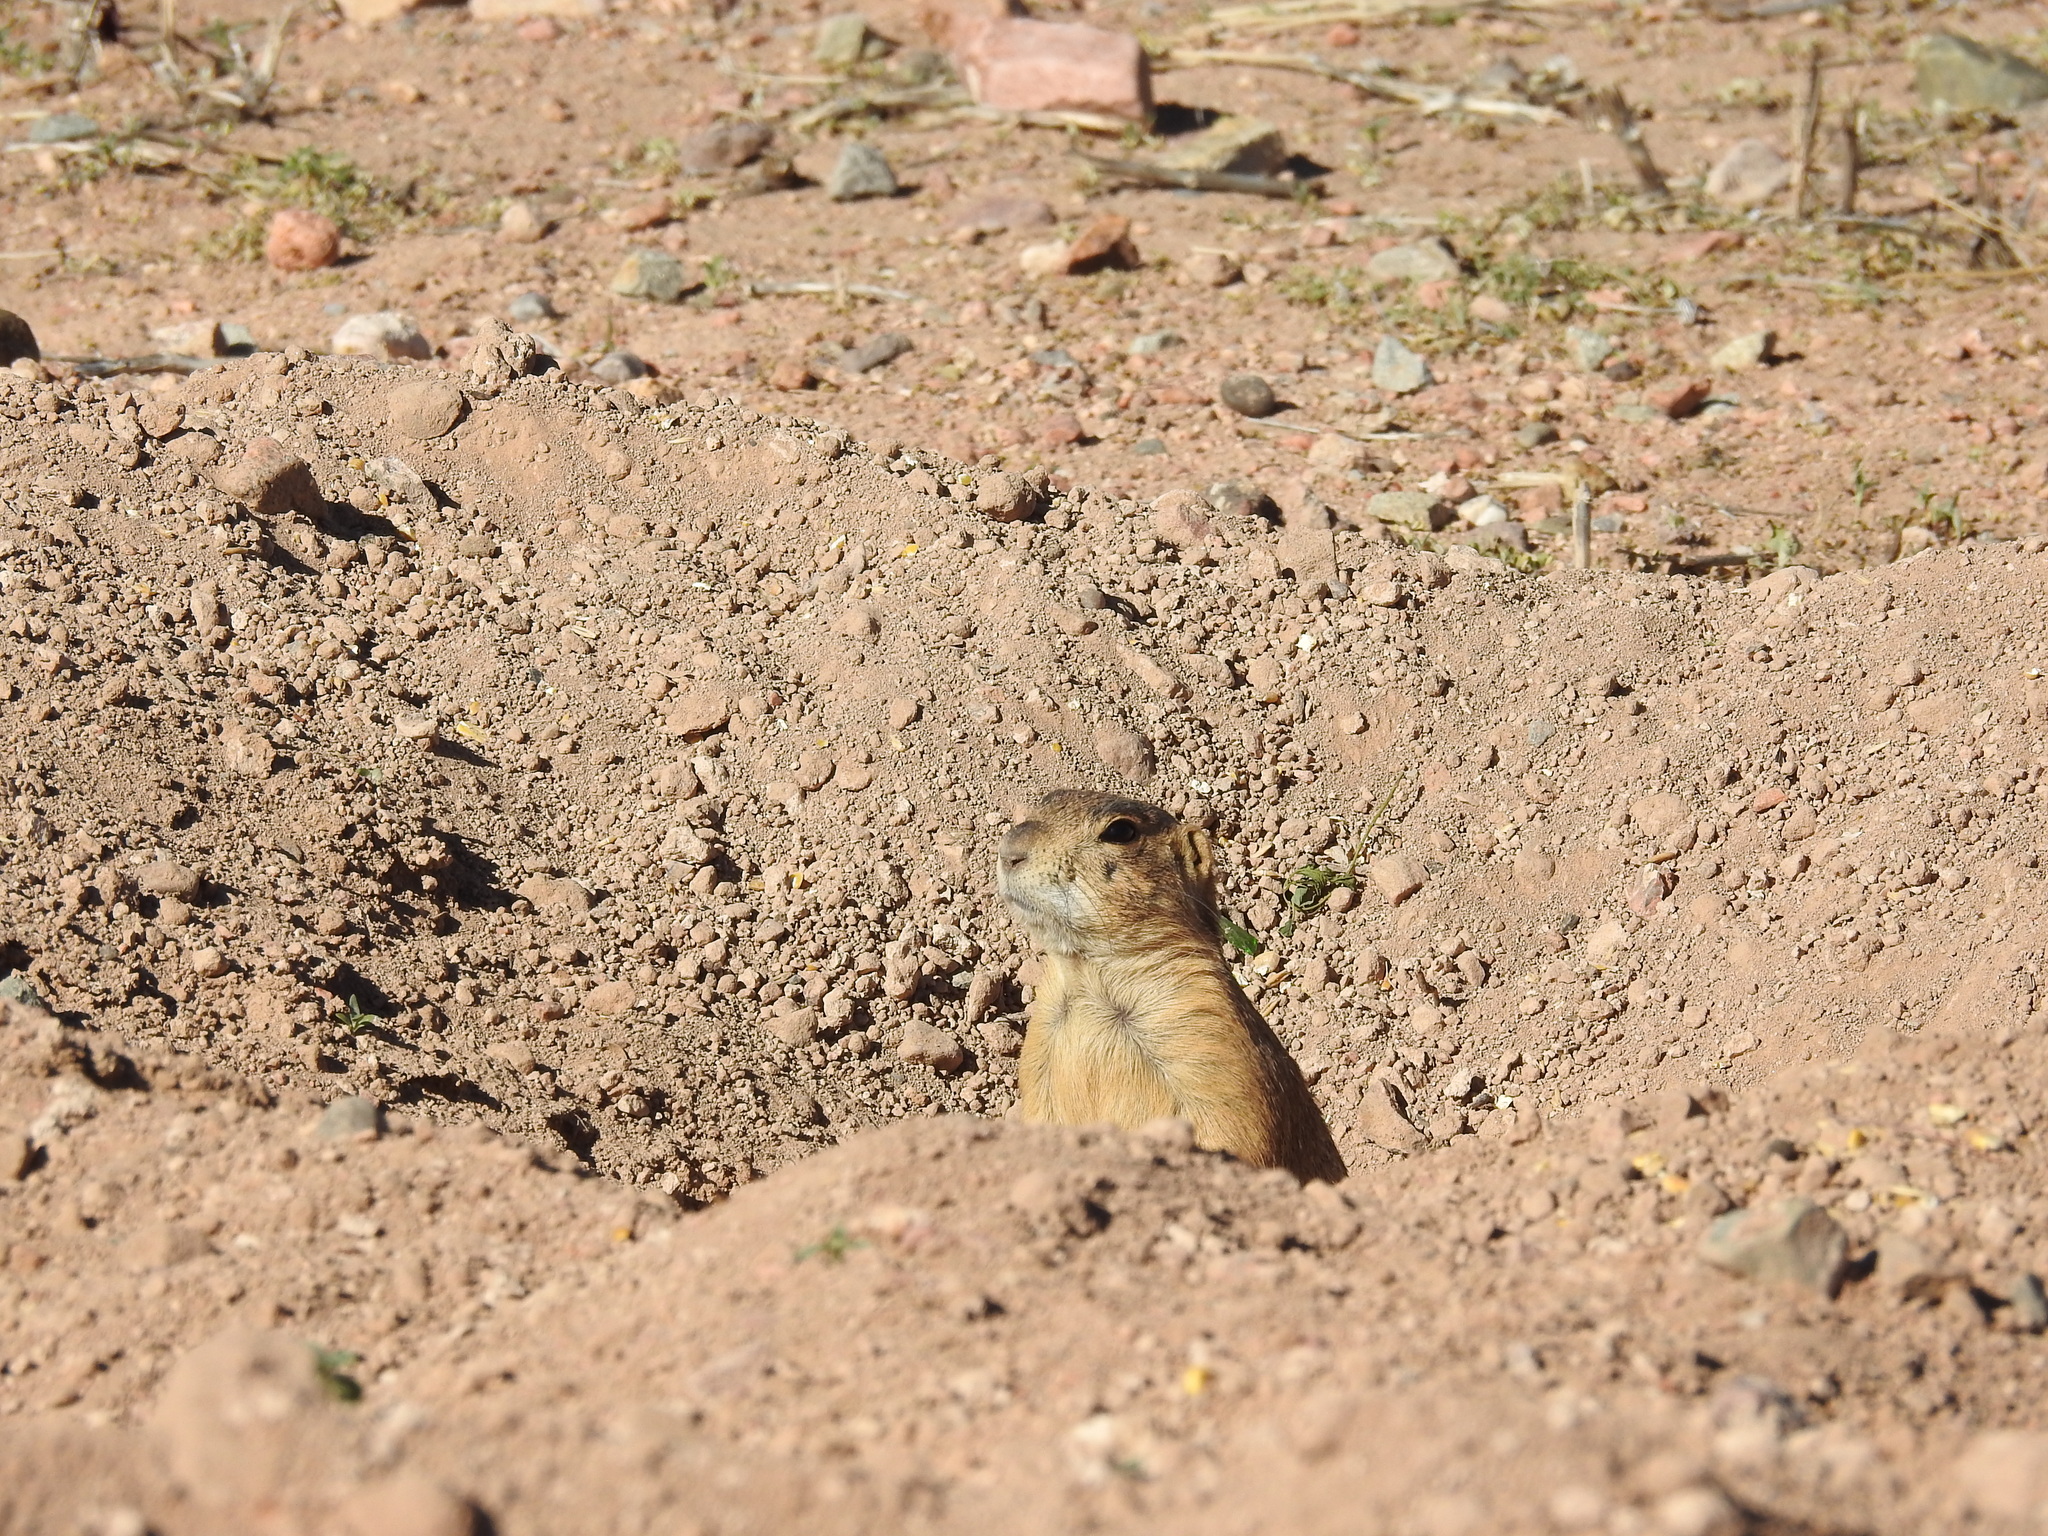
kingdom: Animalia
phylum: Chordata
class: Mammalia
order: Rodentia
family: Sciuridae
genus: Cynomys
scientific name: Cynomys gunnisoni
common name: Gunnison's prairie dog
